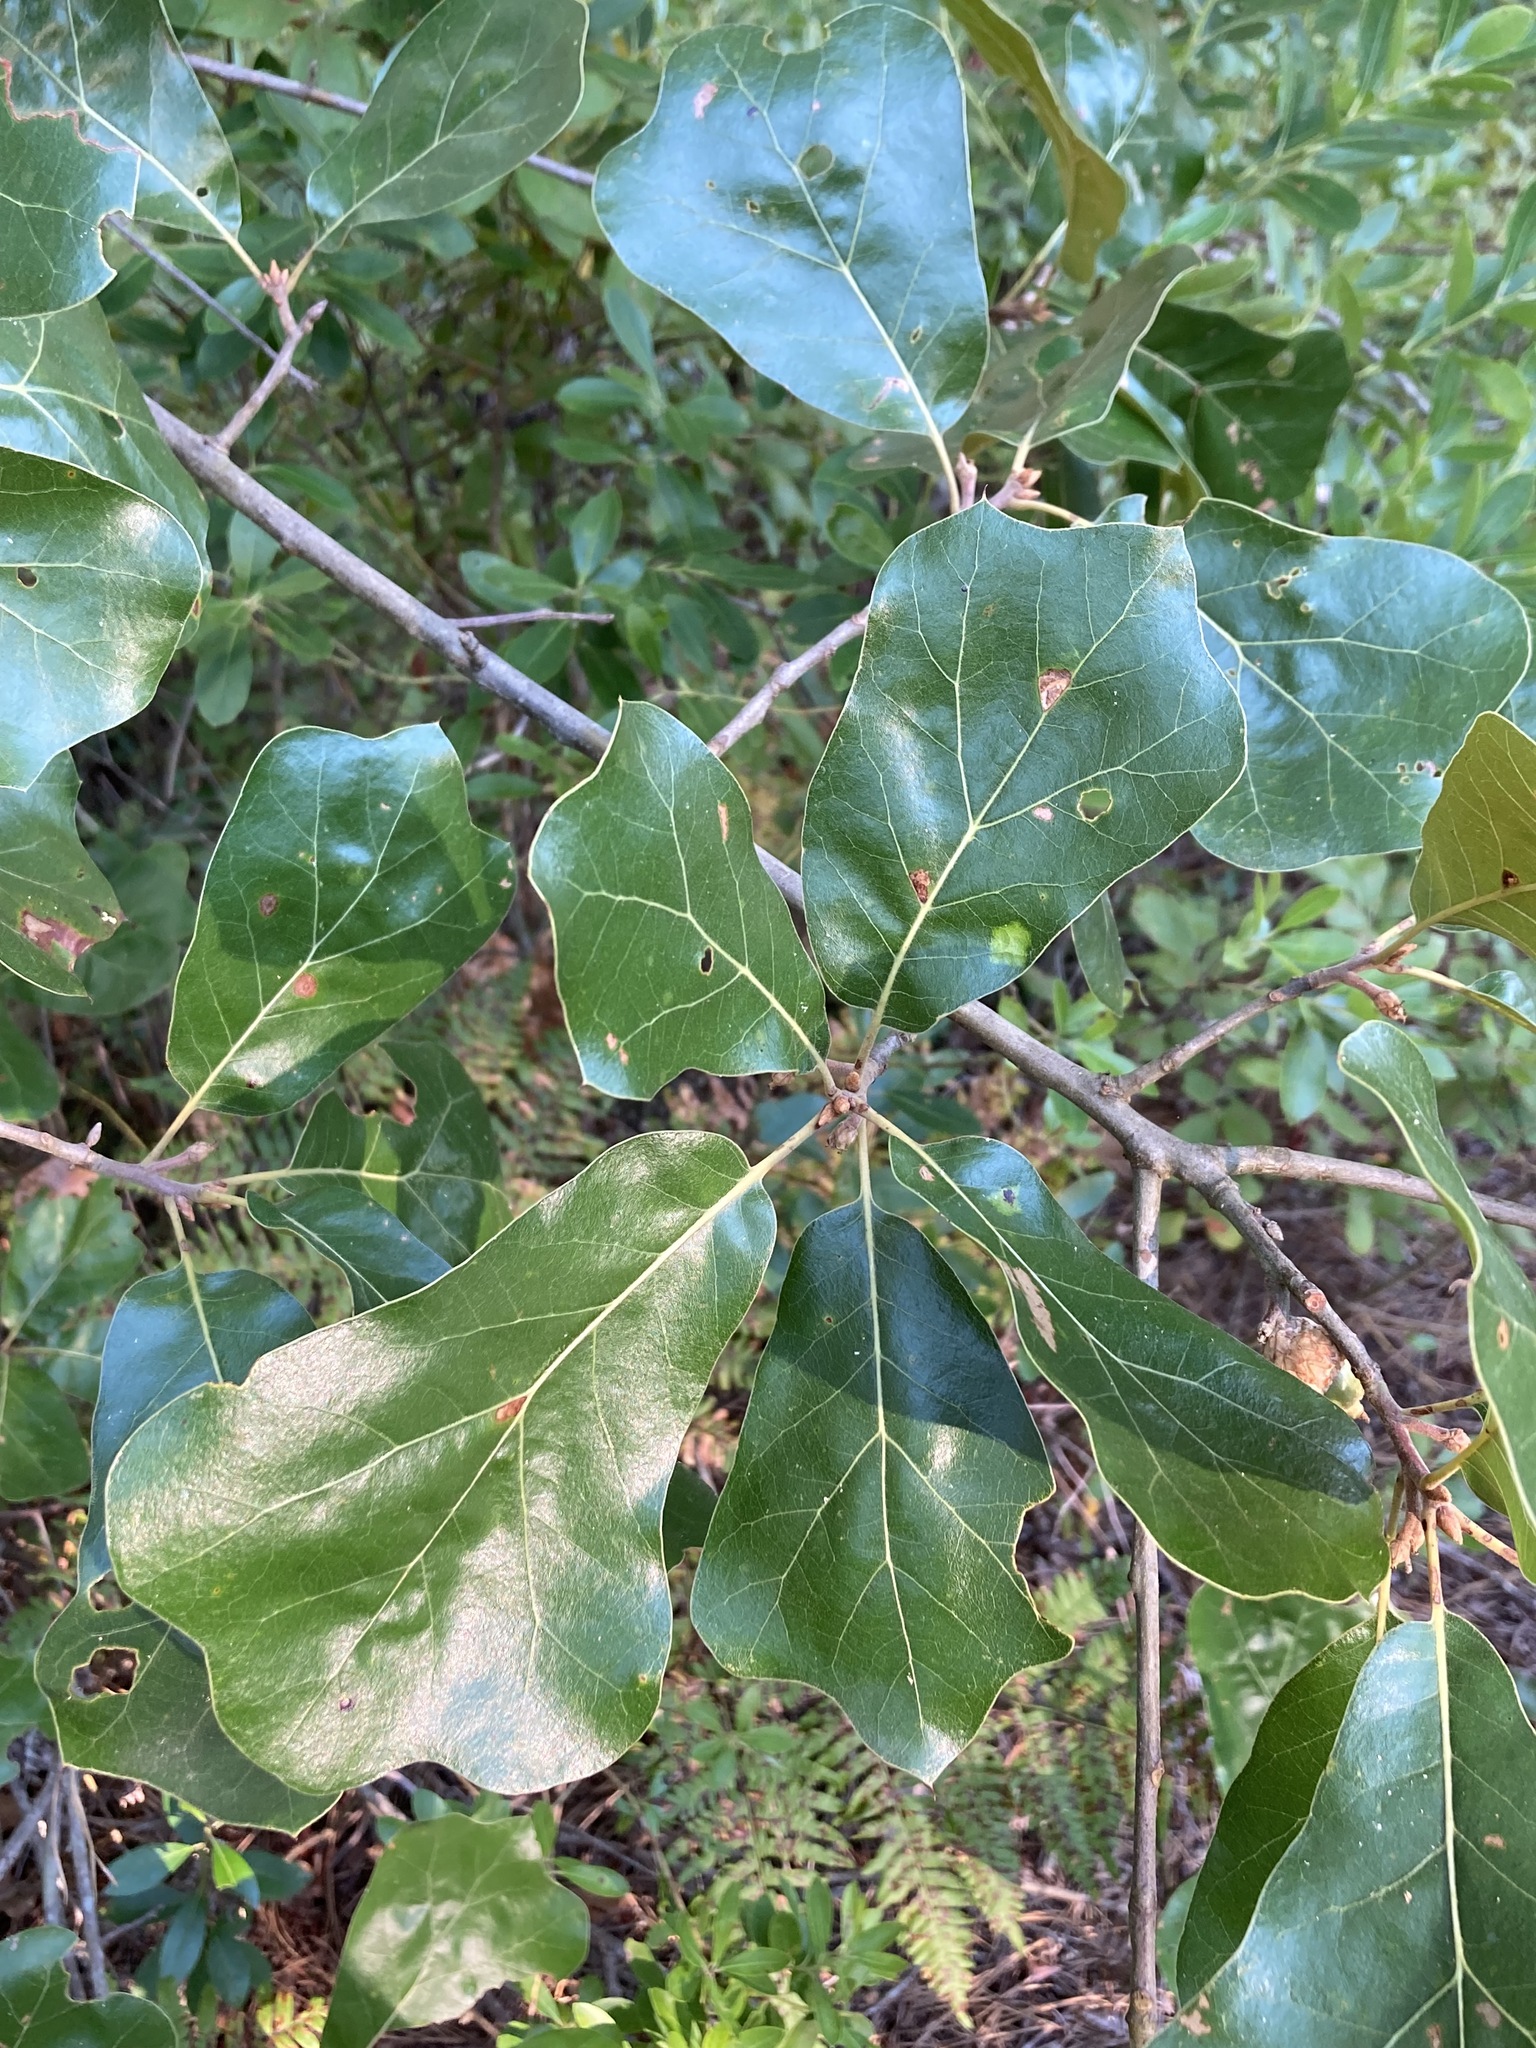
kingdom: Plantae
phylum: Tracheophyta
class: Magnoliopsida
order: Fagales
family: Fagaceae
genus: Quercus
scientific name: Quercus marilandica
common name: Blackjack oak
